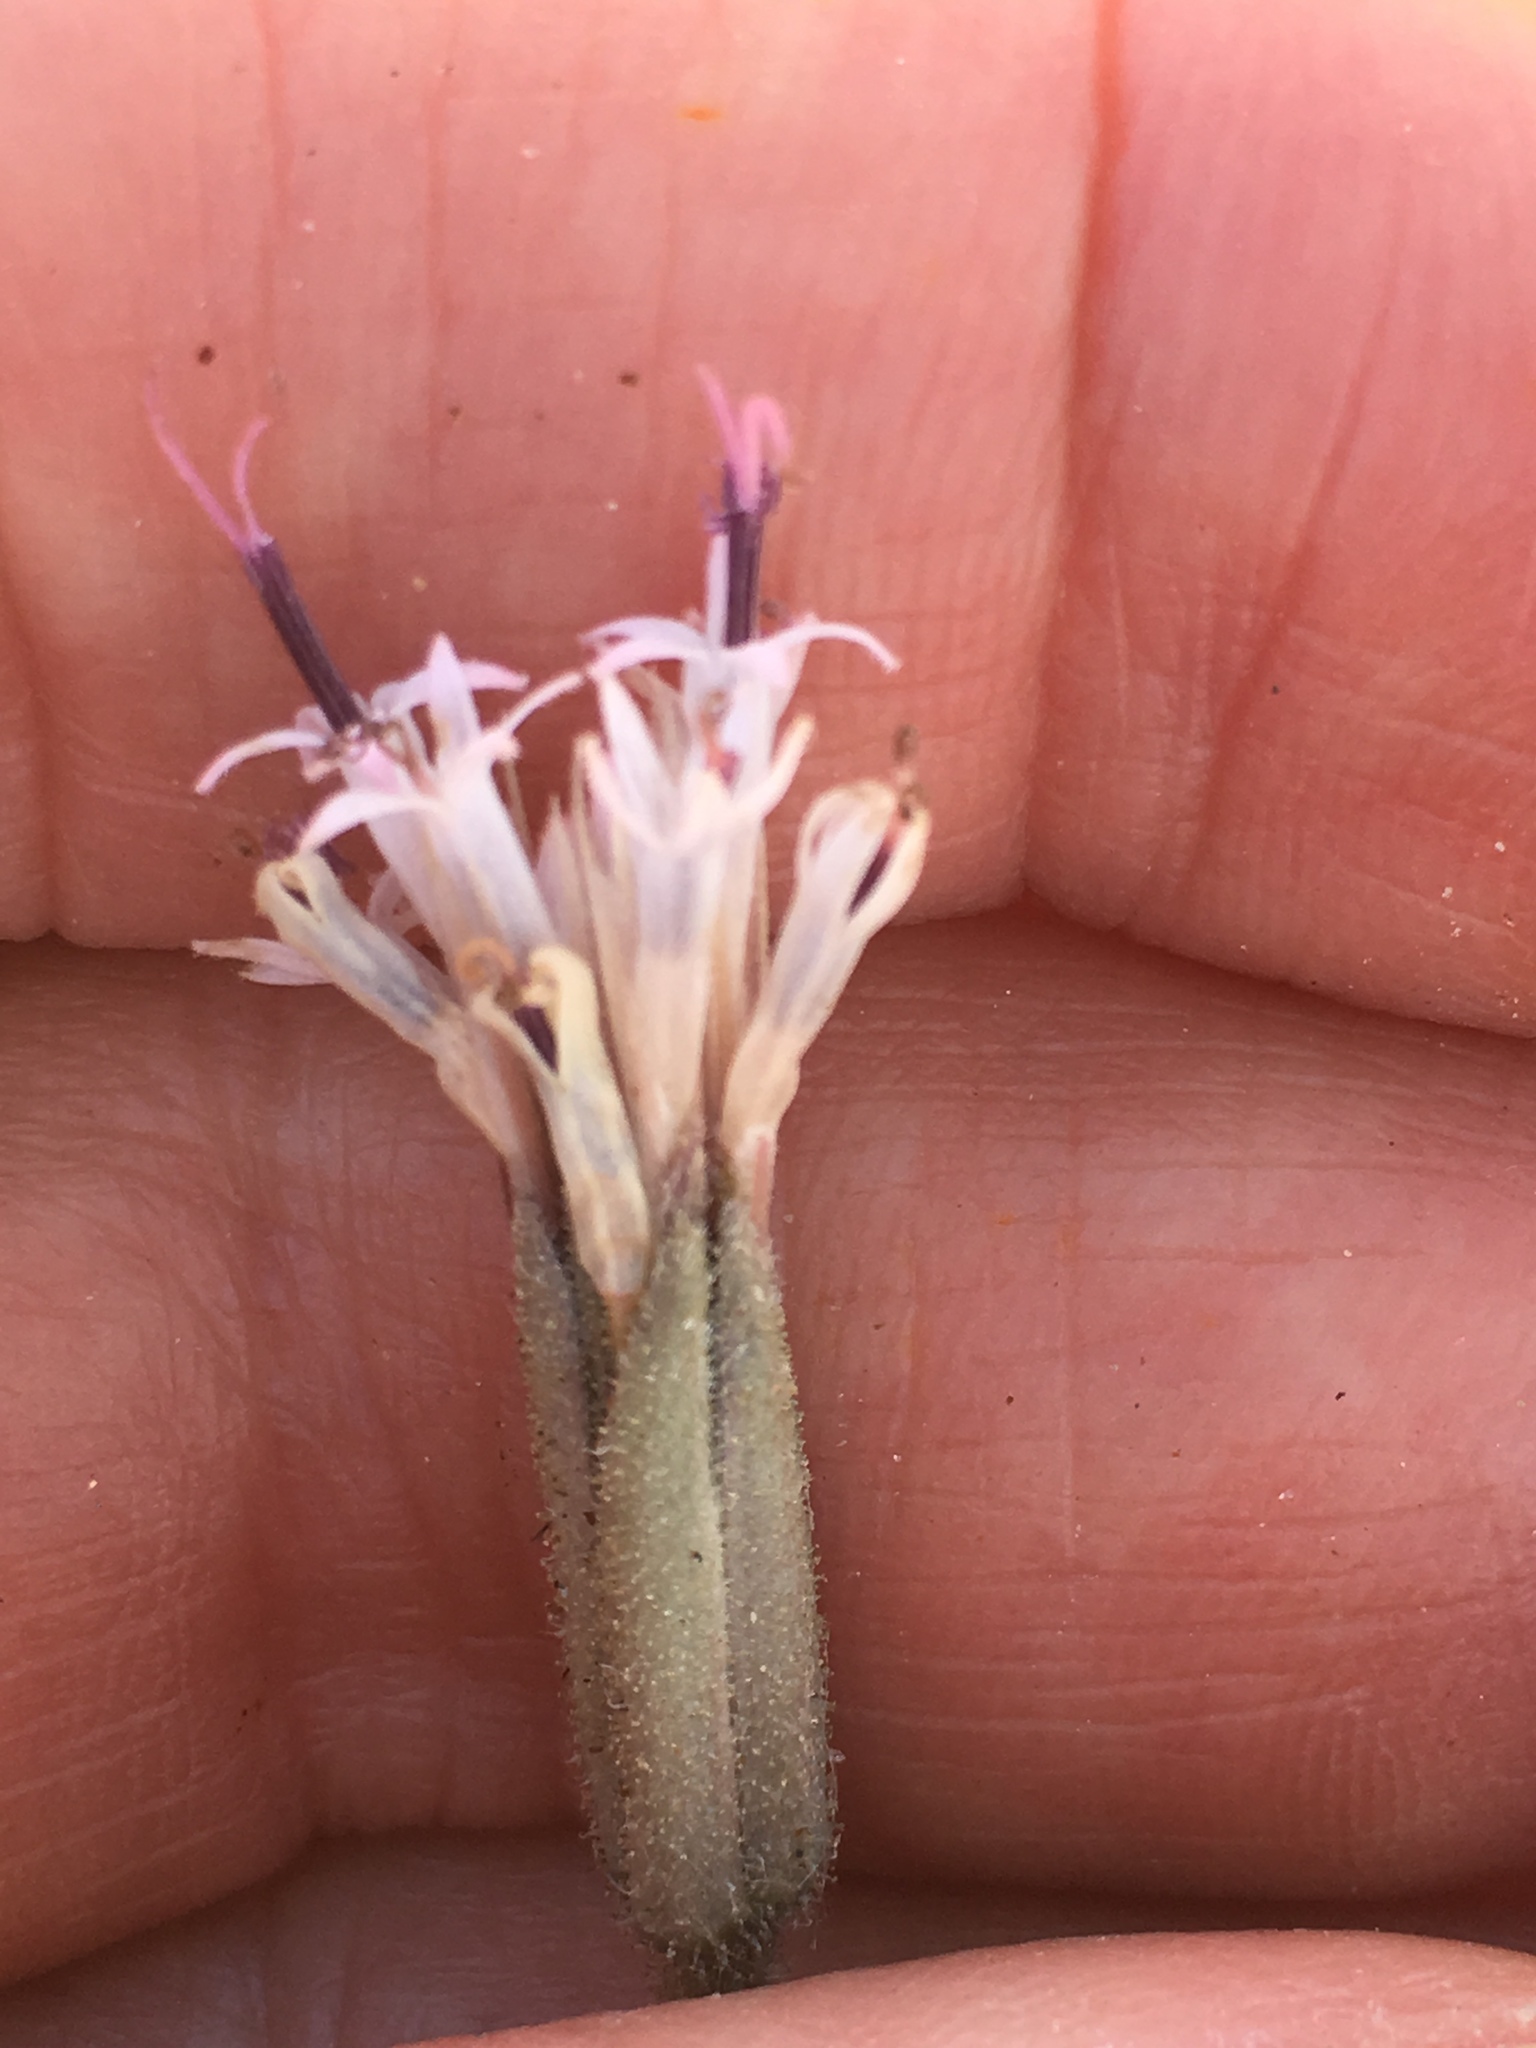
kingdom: Plantae
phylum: Tracheophyta
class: Magnoliopsida
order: Asterales
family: Asteraceae
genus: Palafoxia
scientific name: Palafoxia arida
